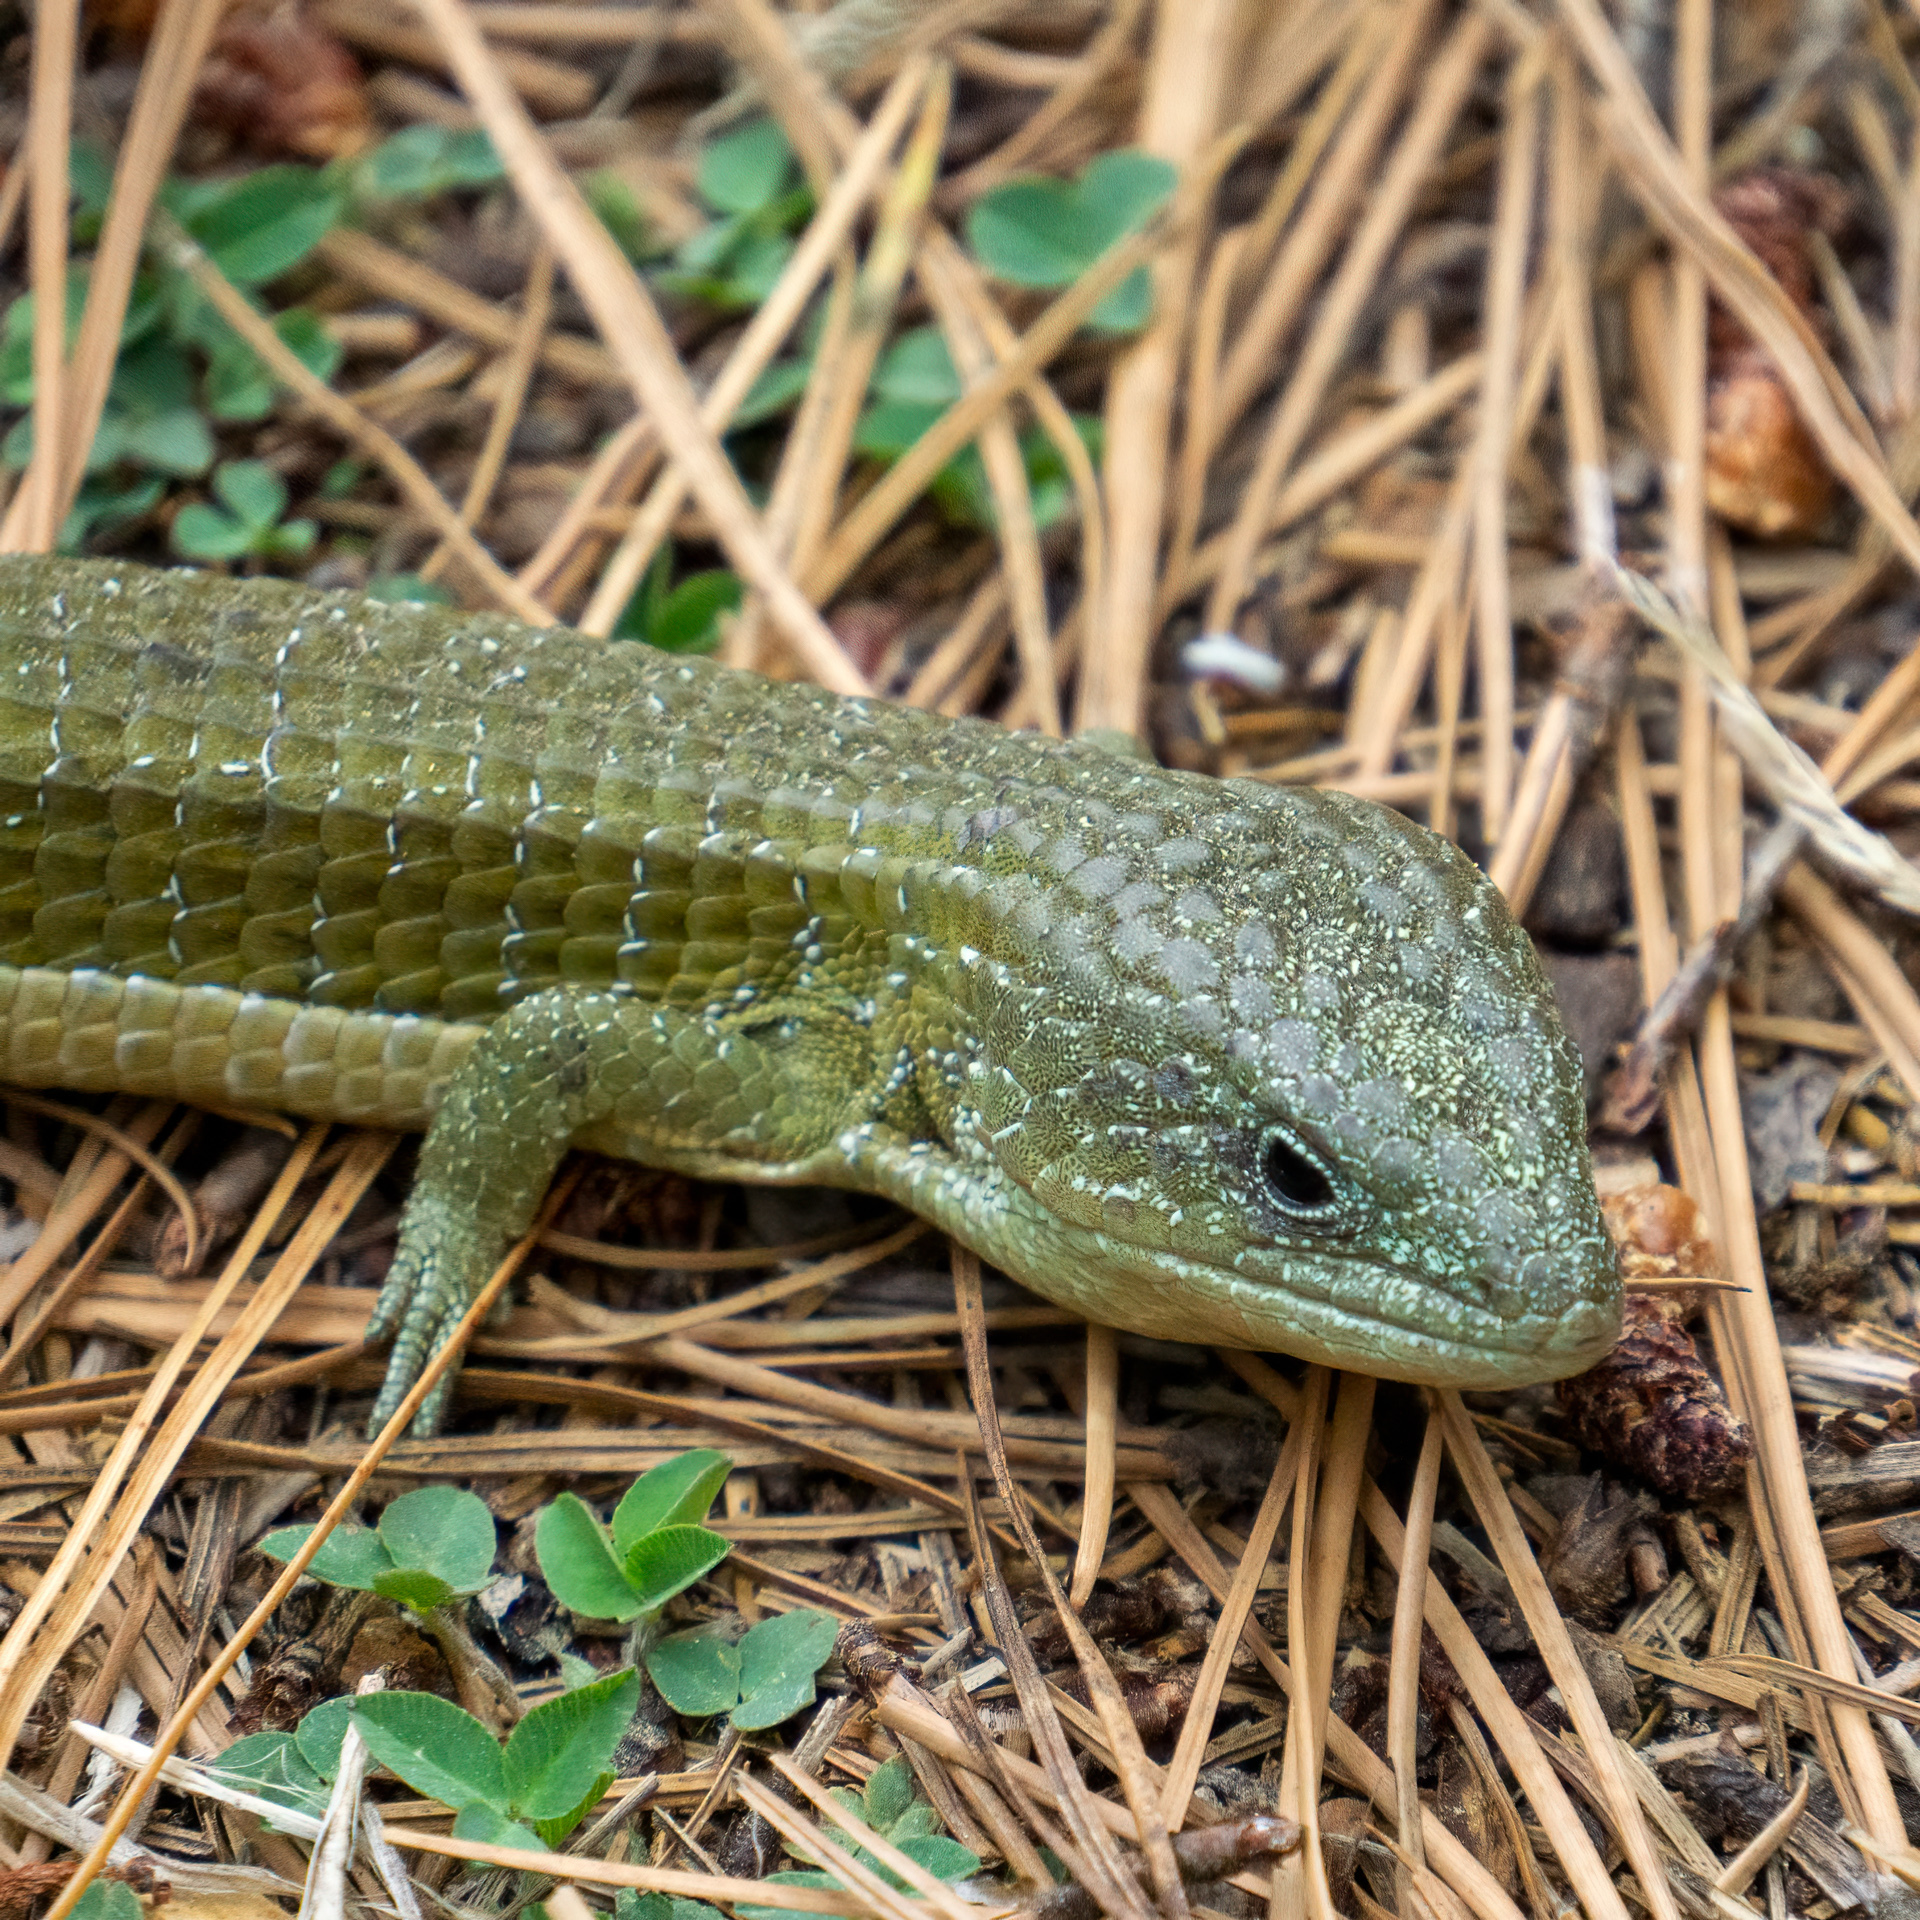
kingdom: Animalia
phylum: Chordata
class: Squamata
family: Anguidae
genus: Barisia
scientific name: Barisia imbricata
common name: Imbricate alligator lizard
